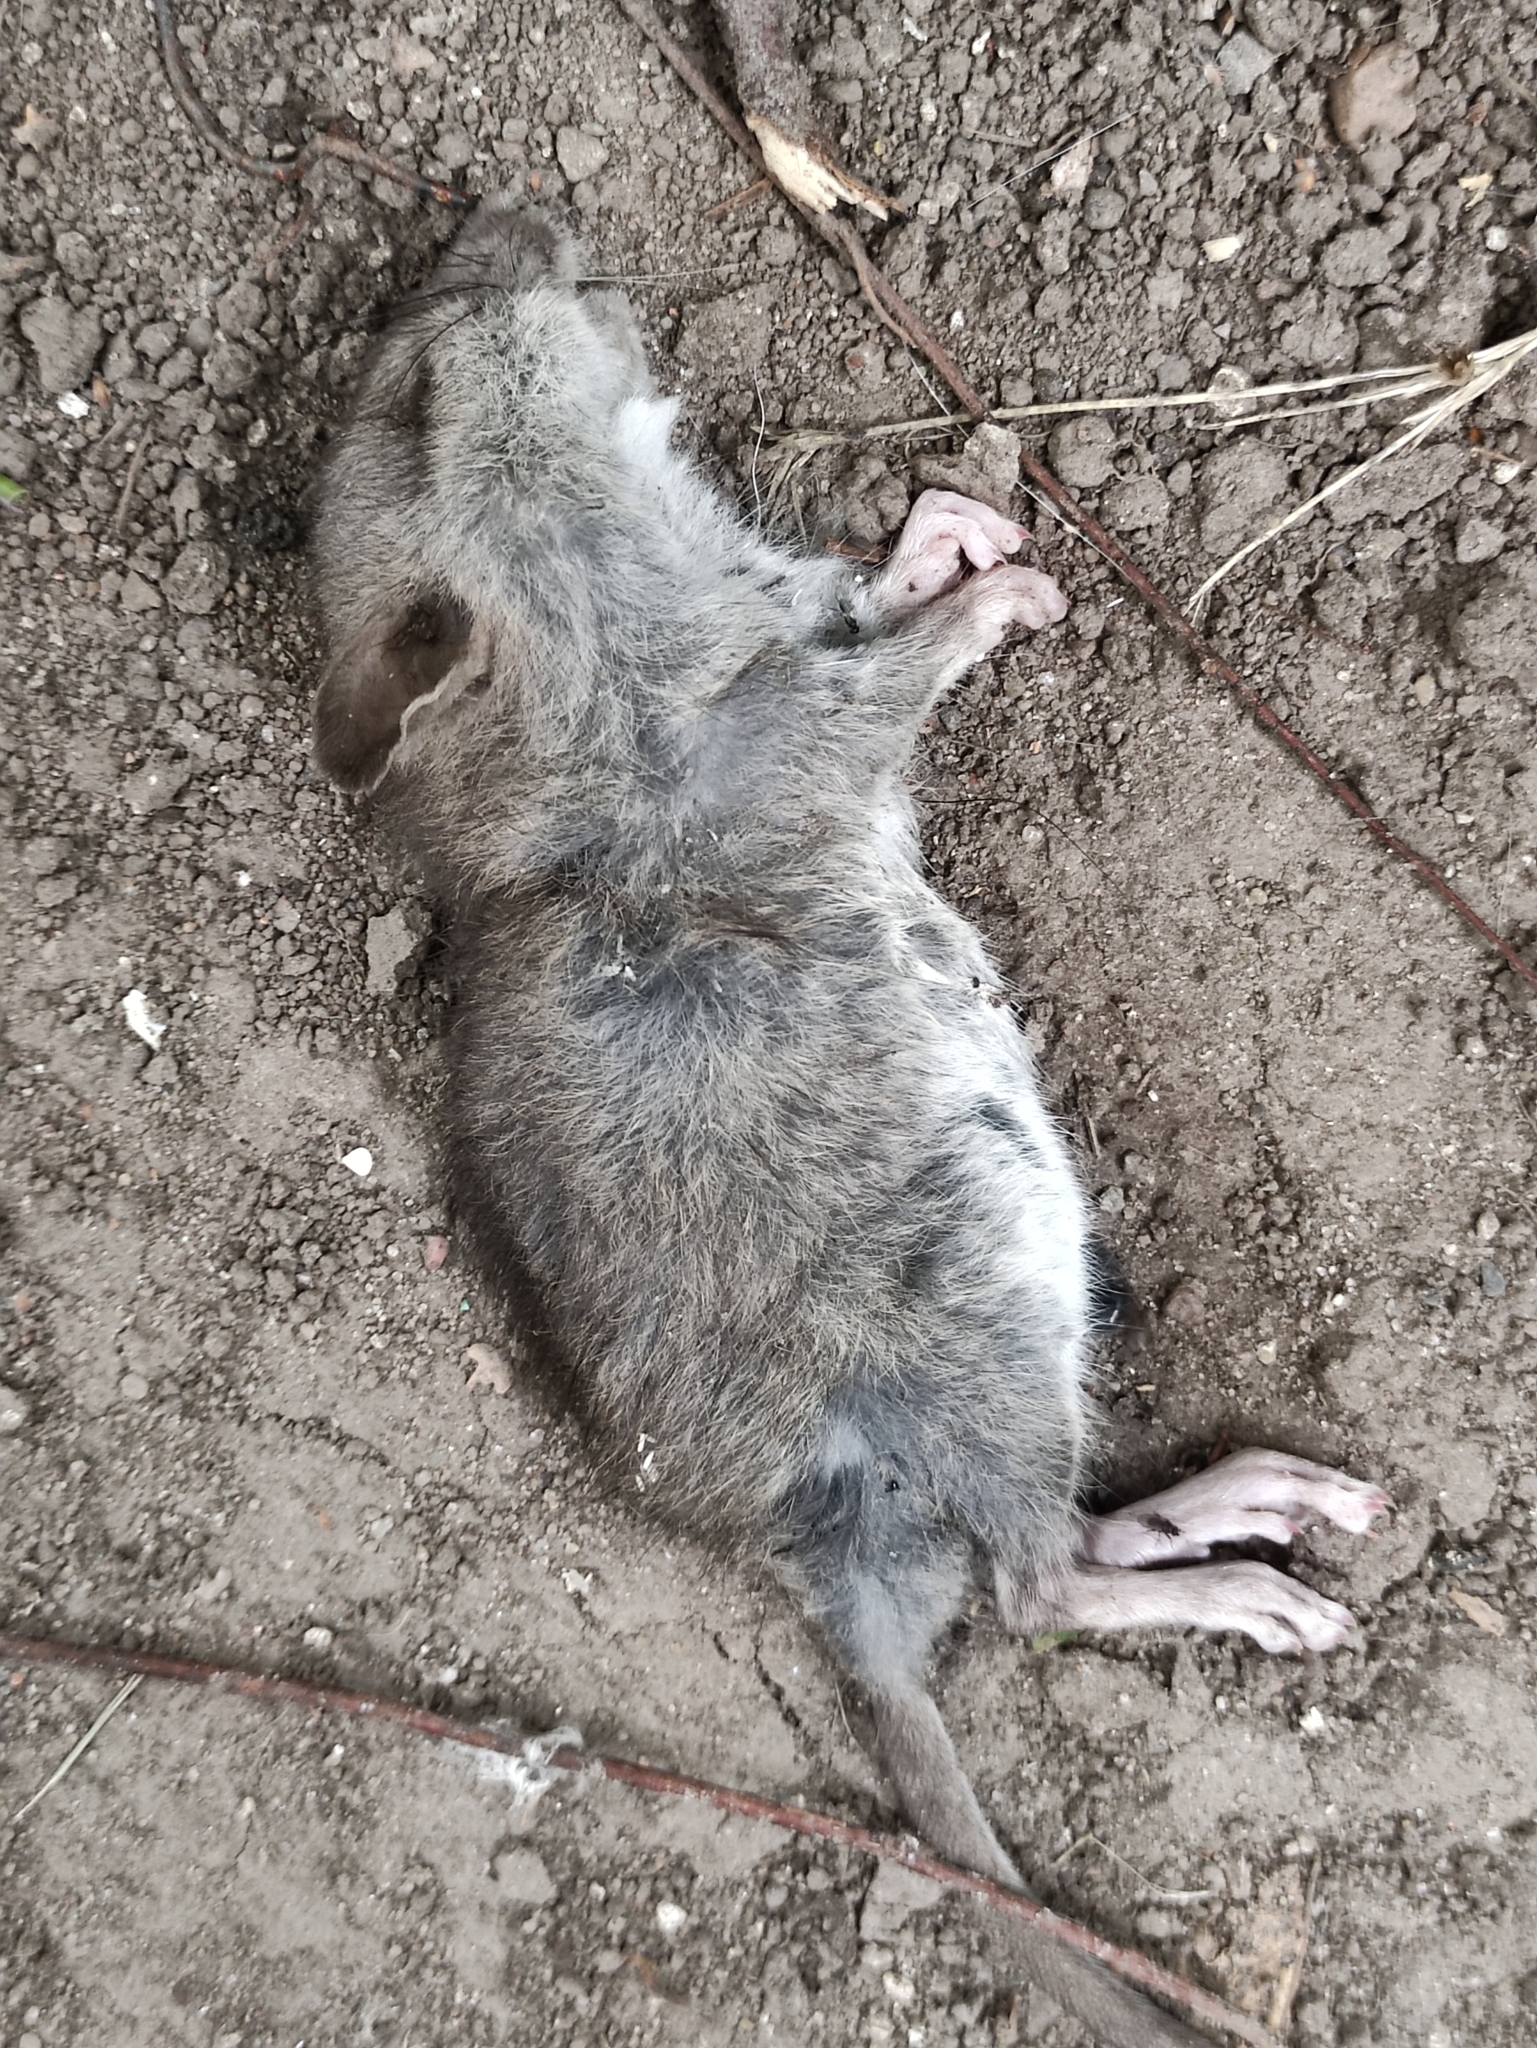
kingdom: Animalia
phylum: Chordata
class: Mammalia
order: Rodentia
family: Muridae
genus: Rattus
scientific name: Rattus norvegicus
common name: Brown rat
